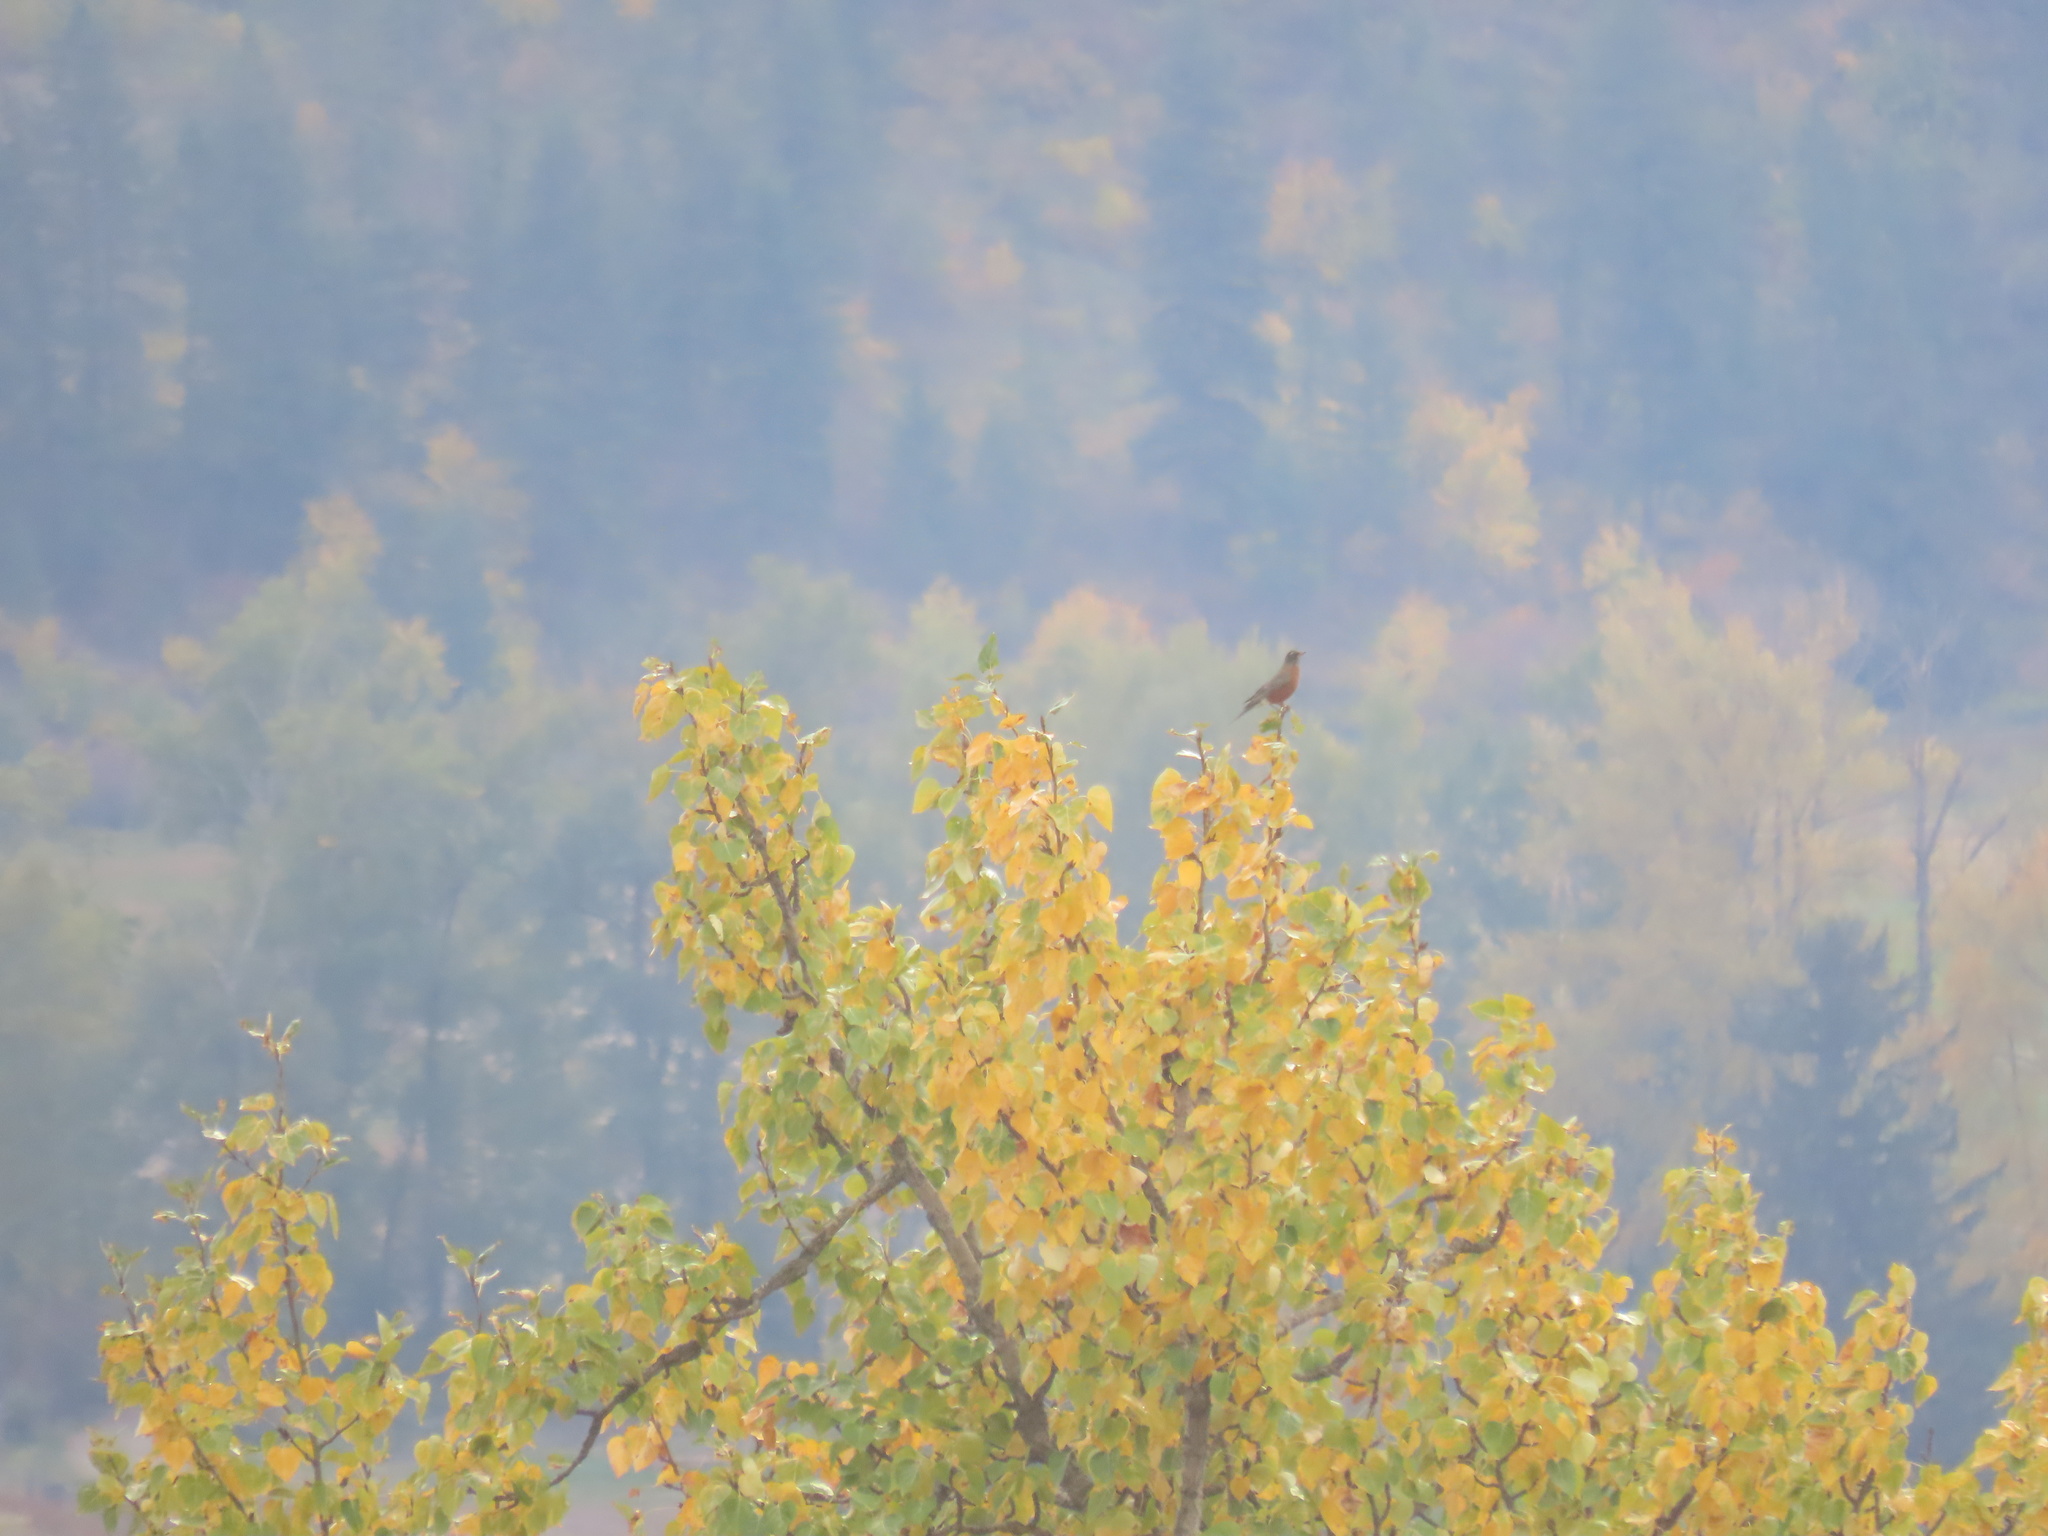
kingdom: Animalia
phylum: Chordata
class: Aves
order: Passeriformes
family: Turdidae
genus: Turdus
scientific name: Turdus migratorius
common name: American robin
